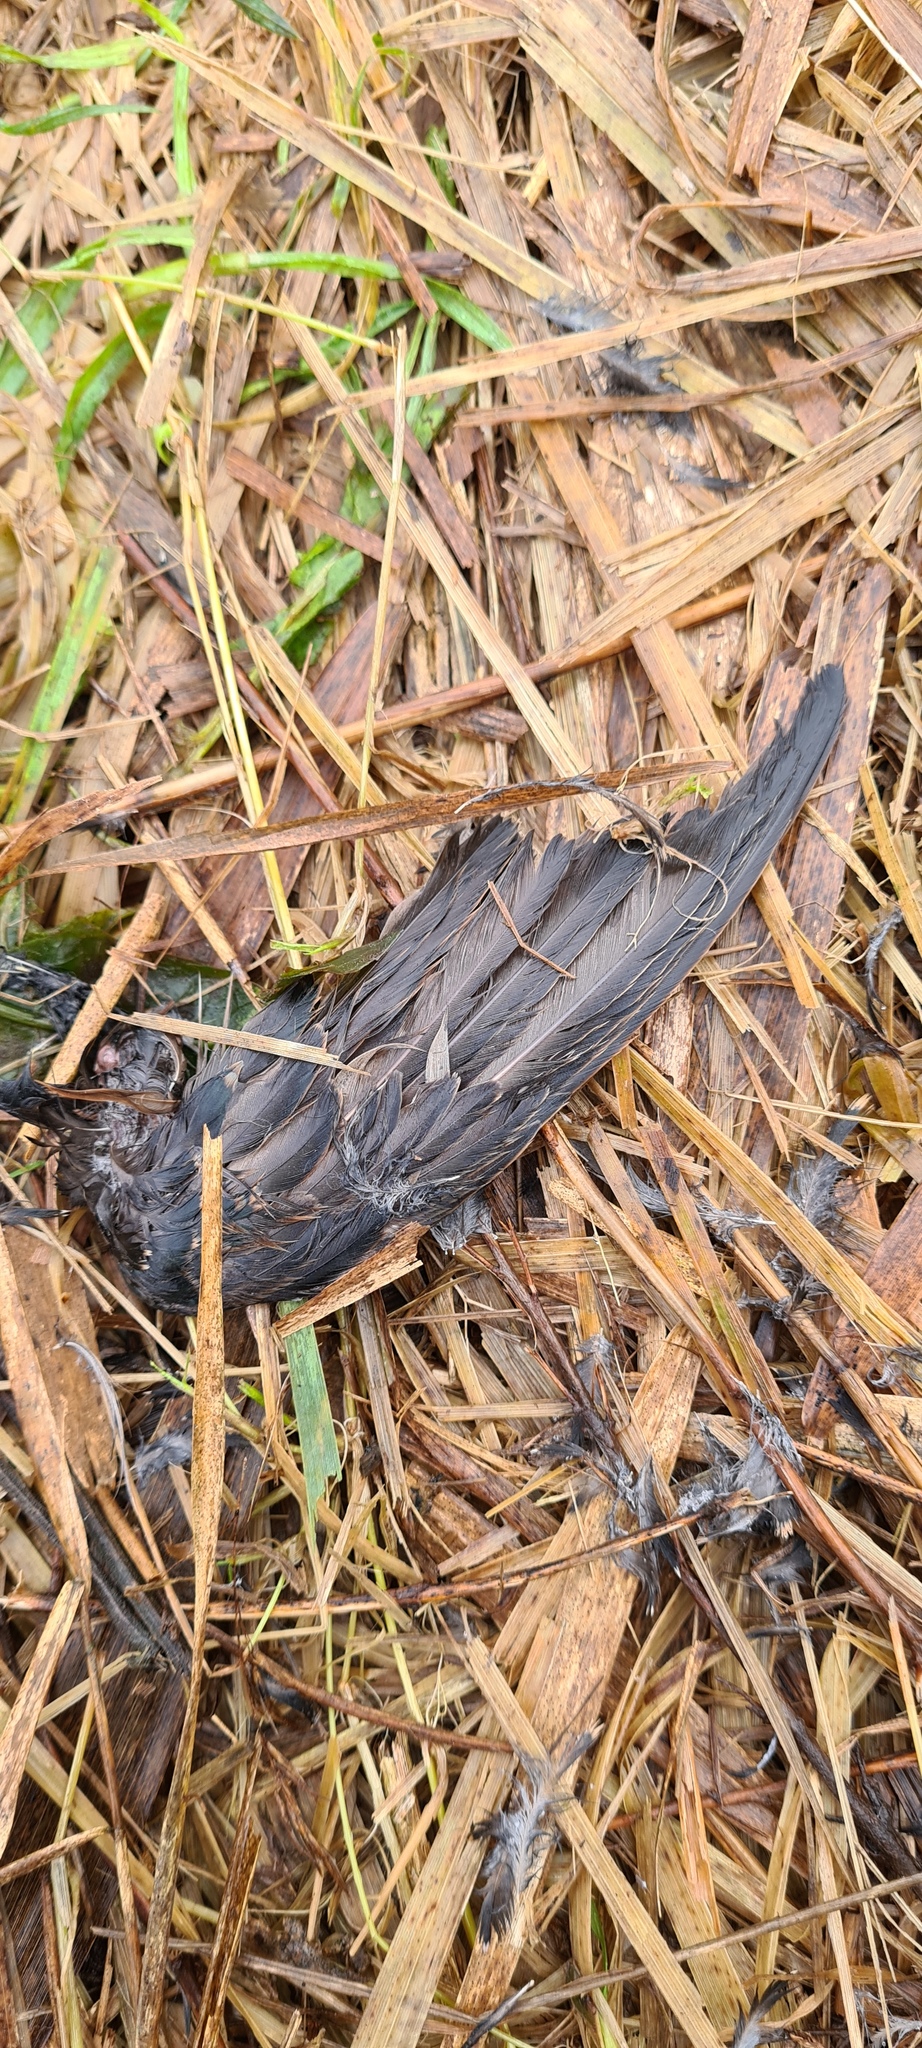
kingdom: Animalia
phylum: Chordata
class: Aves
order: Passeriformes
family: Sturnidae
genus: Sturnus
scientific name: Sturnus vulgaris
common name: Common starling
